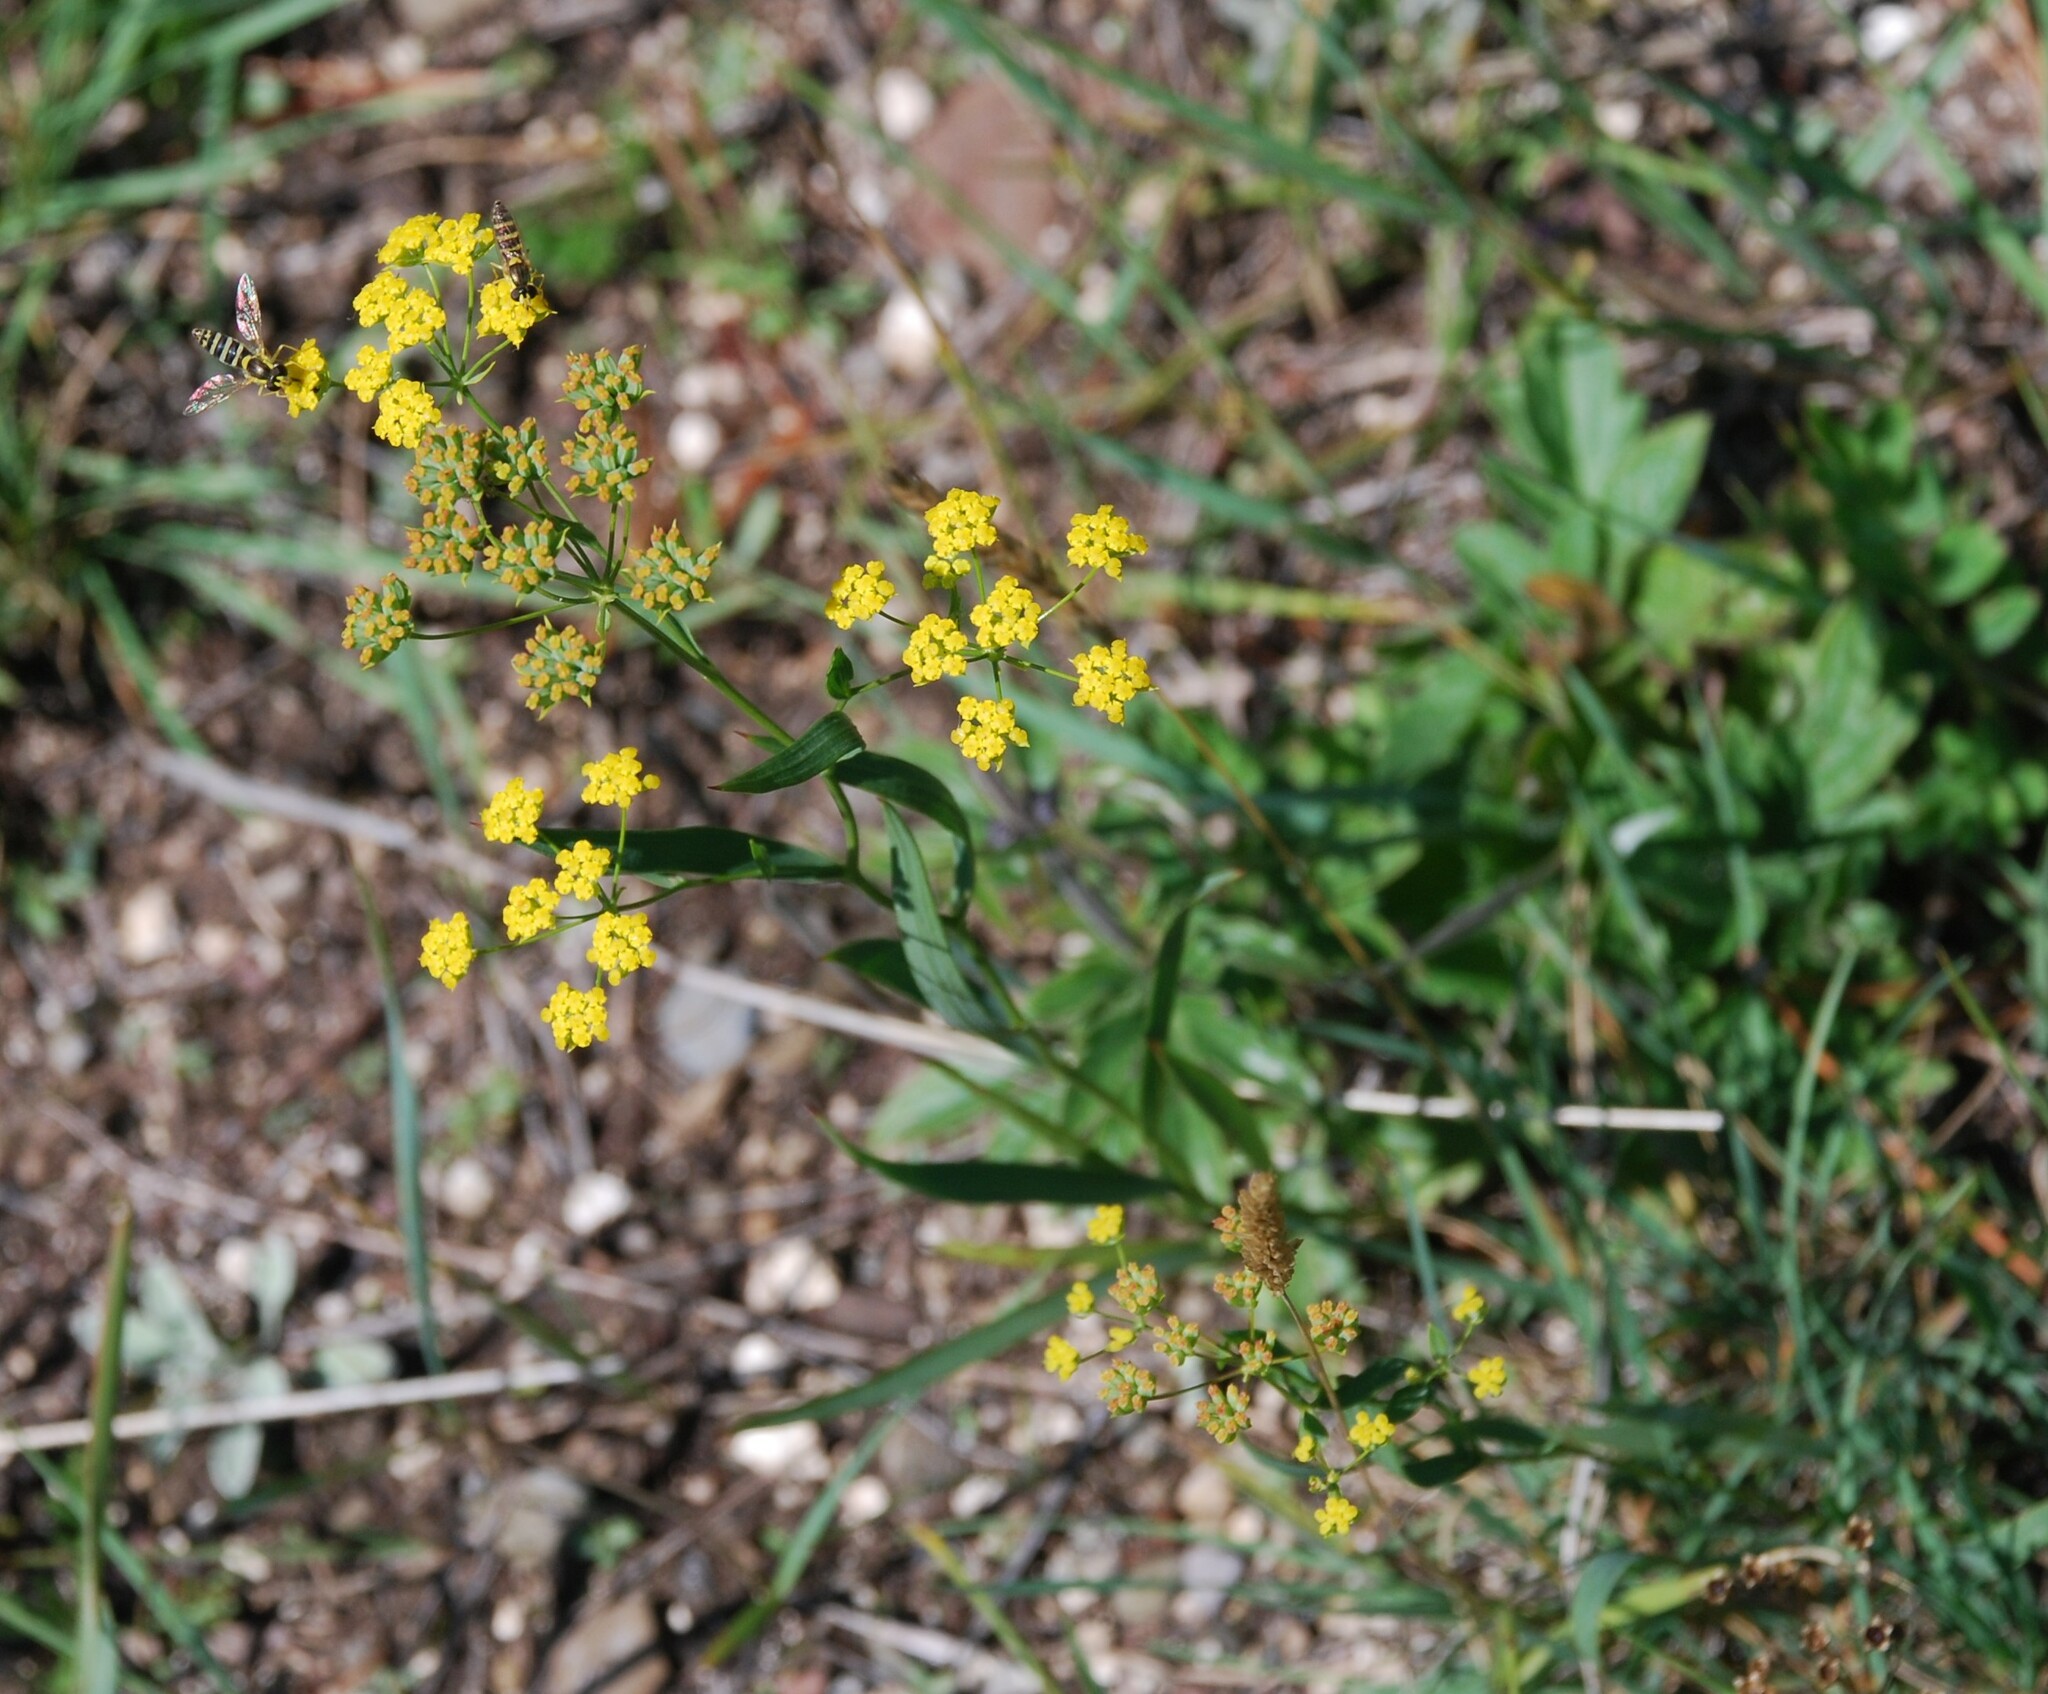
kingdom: Plantae
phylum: Tracheophyta
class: Magnoliopsida
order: Apiales
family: Apiaceae
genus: Bupleurum
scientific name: Bupleurum scorzonerifolium
